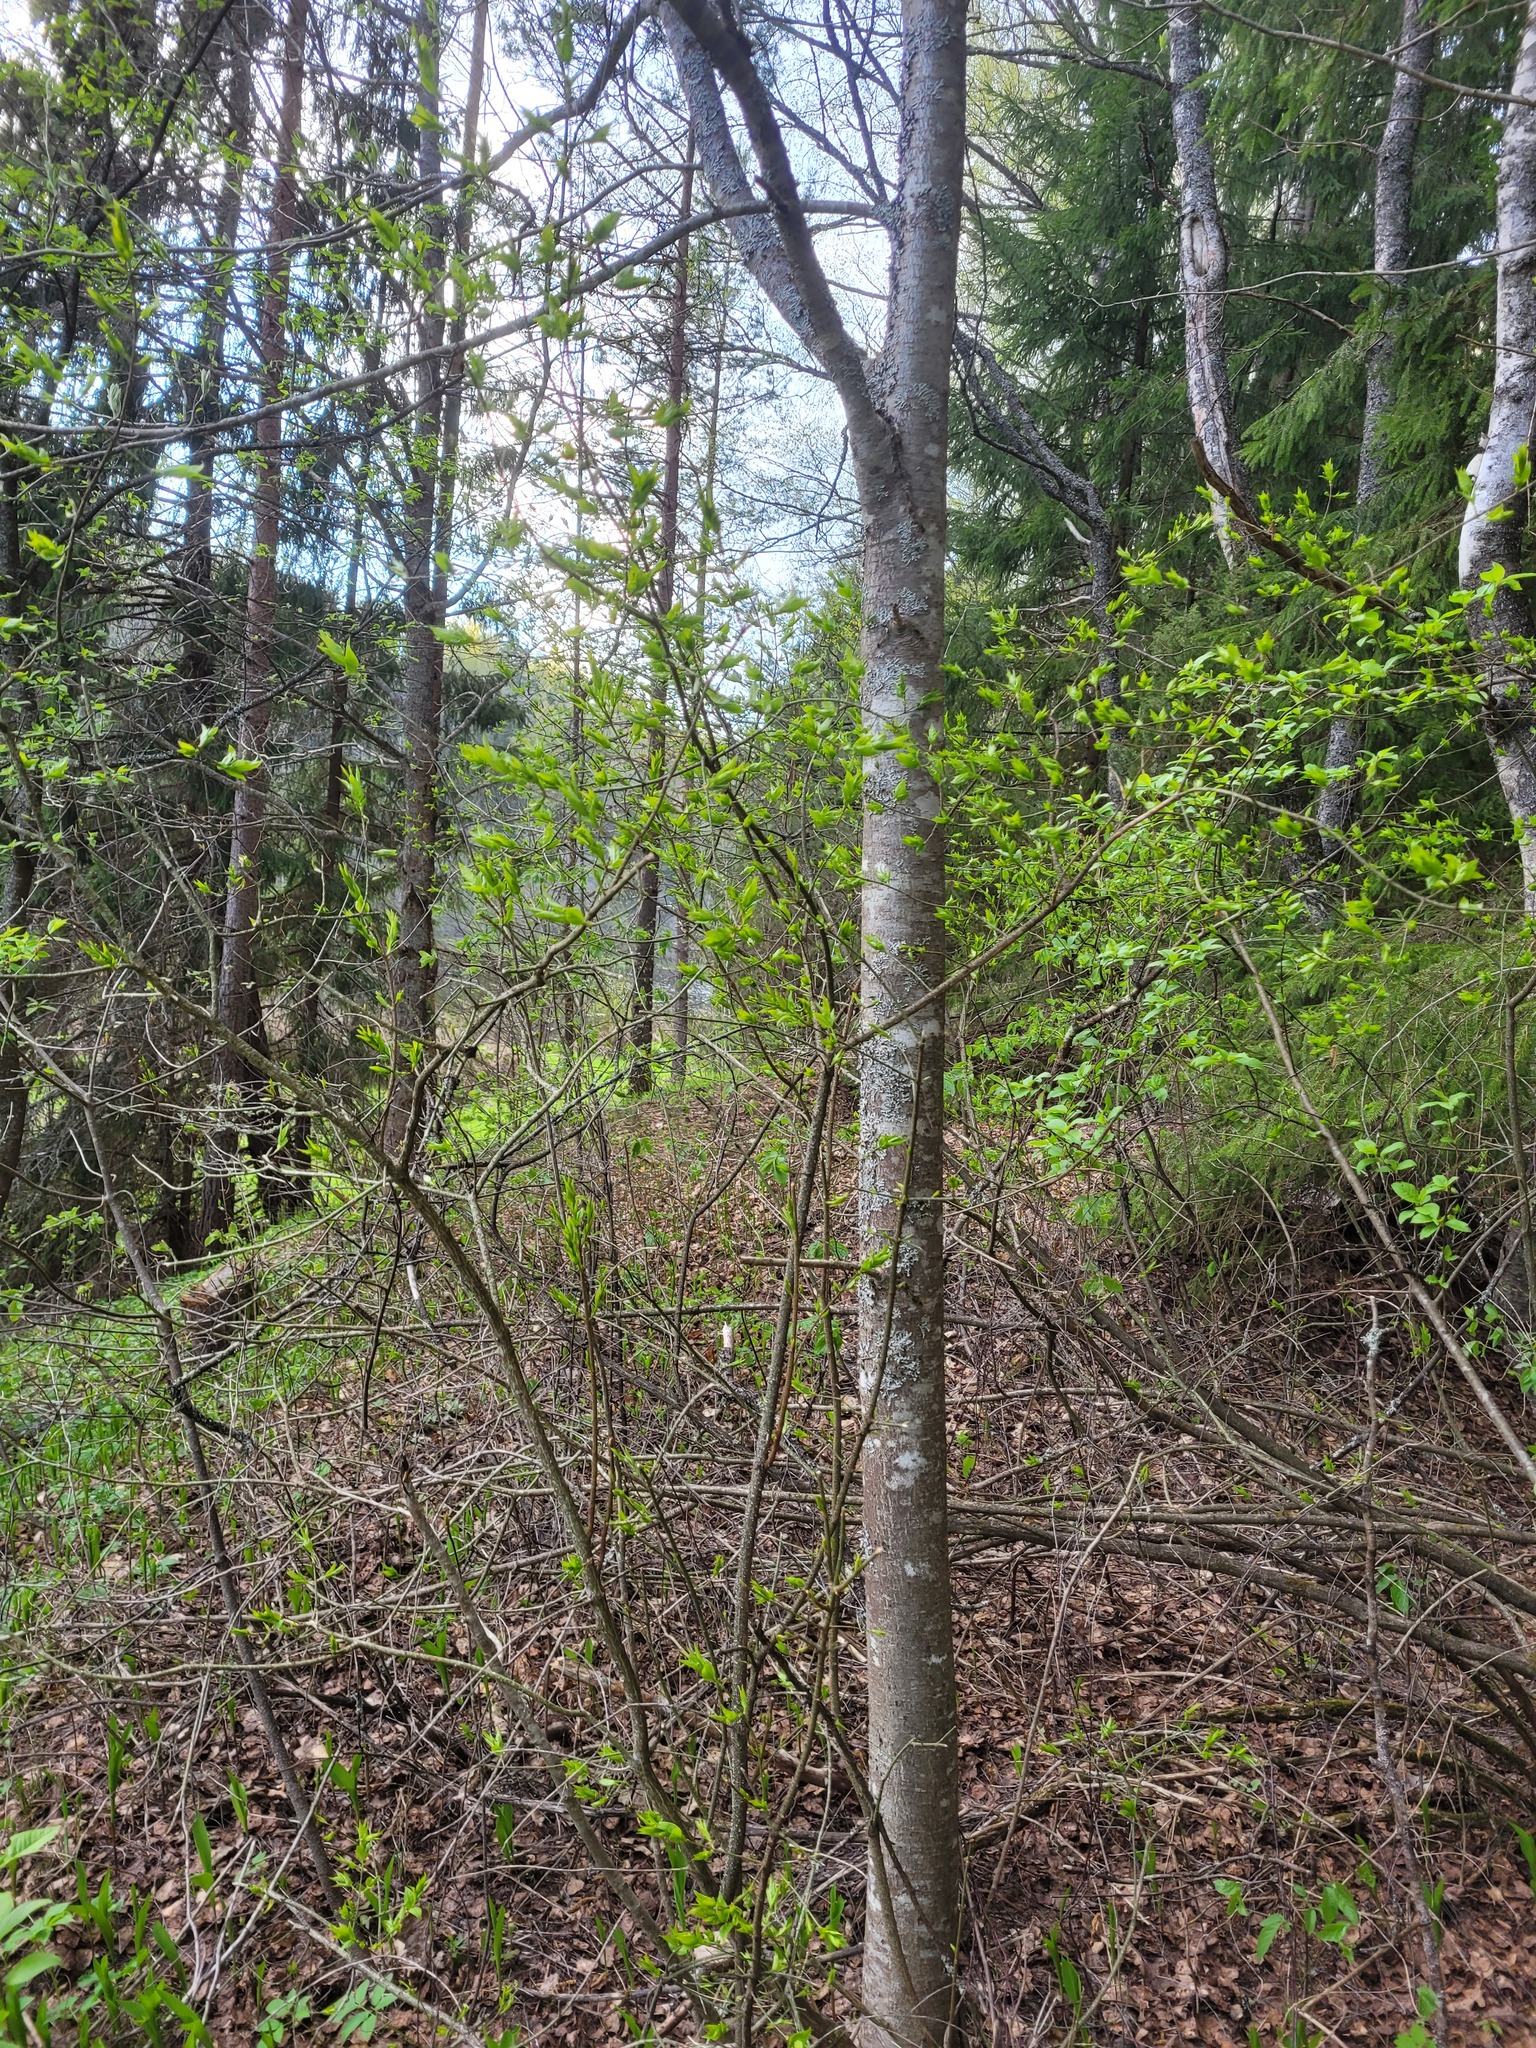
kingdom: Plantae
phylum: Tracheophyta
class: Magnoliopsida
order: Celastrales
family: Celastraceae
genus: Euonymus
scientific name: Euonymus verrucosus
